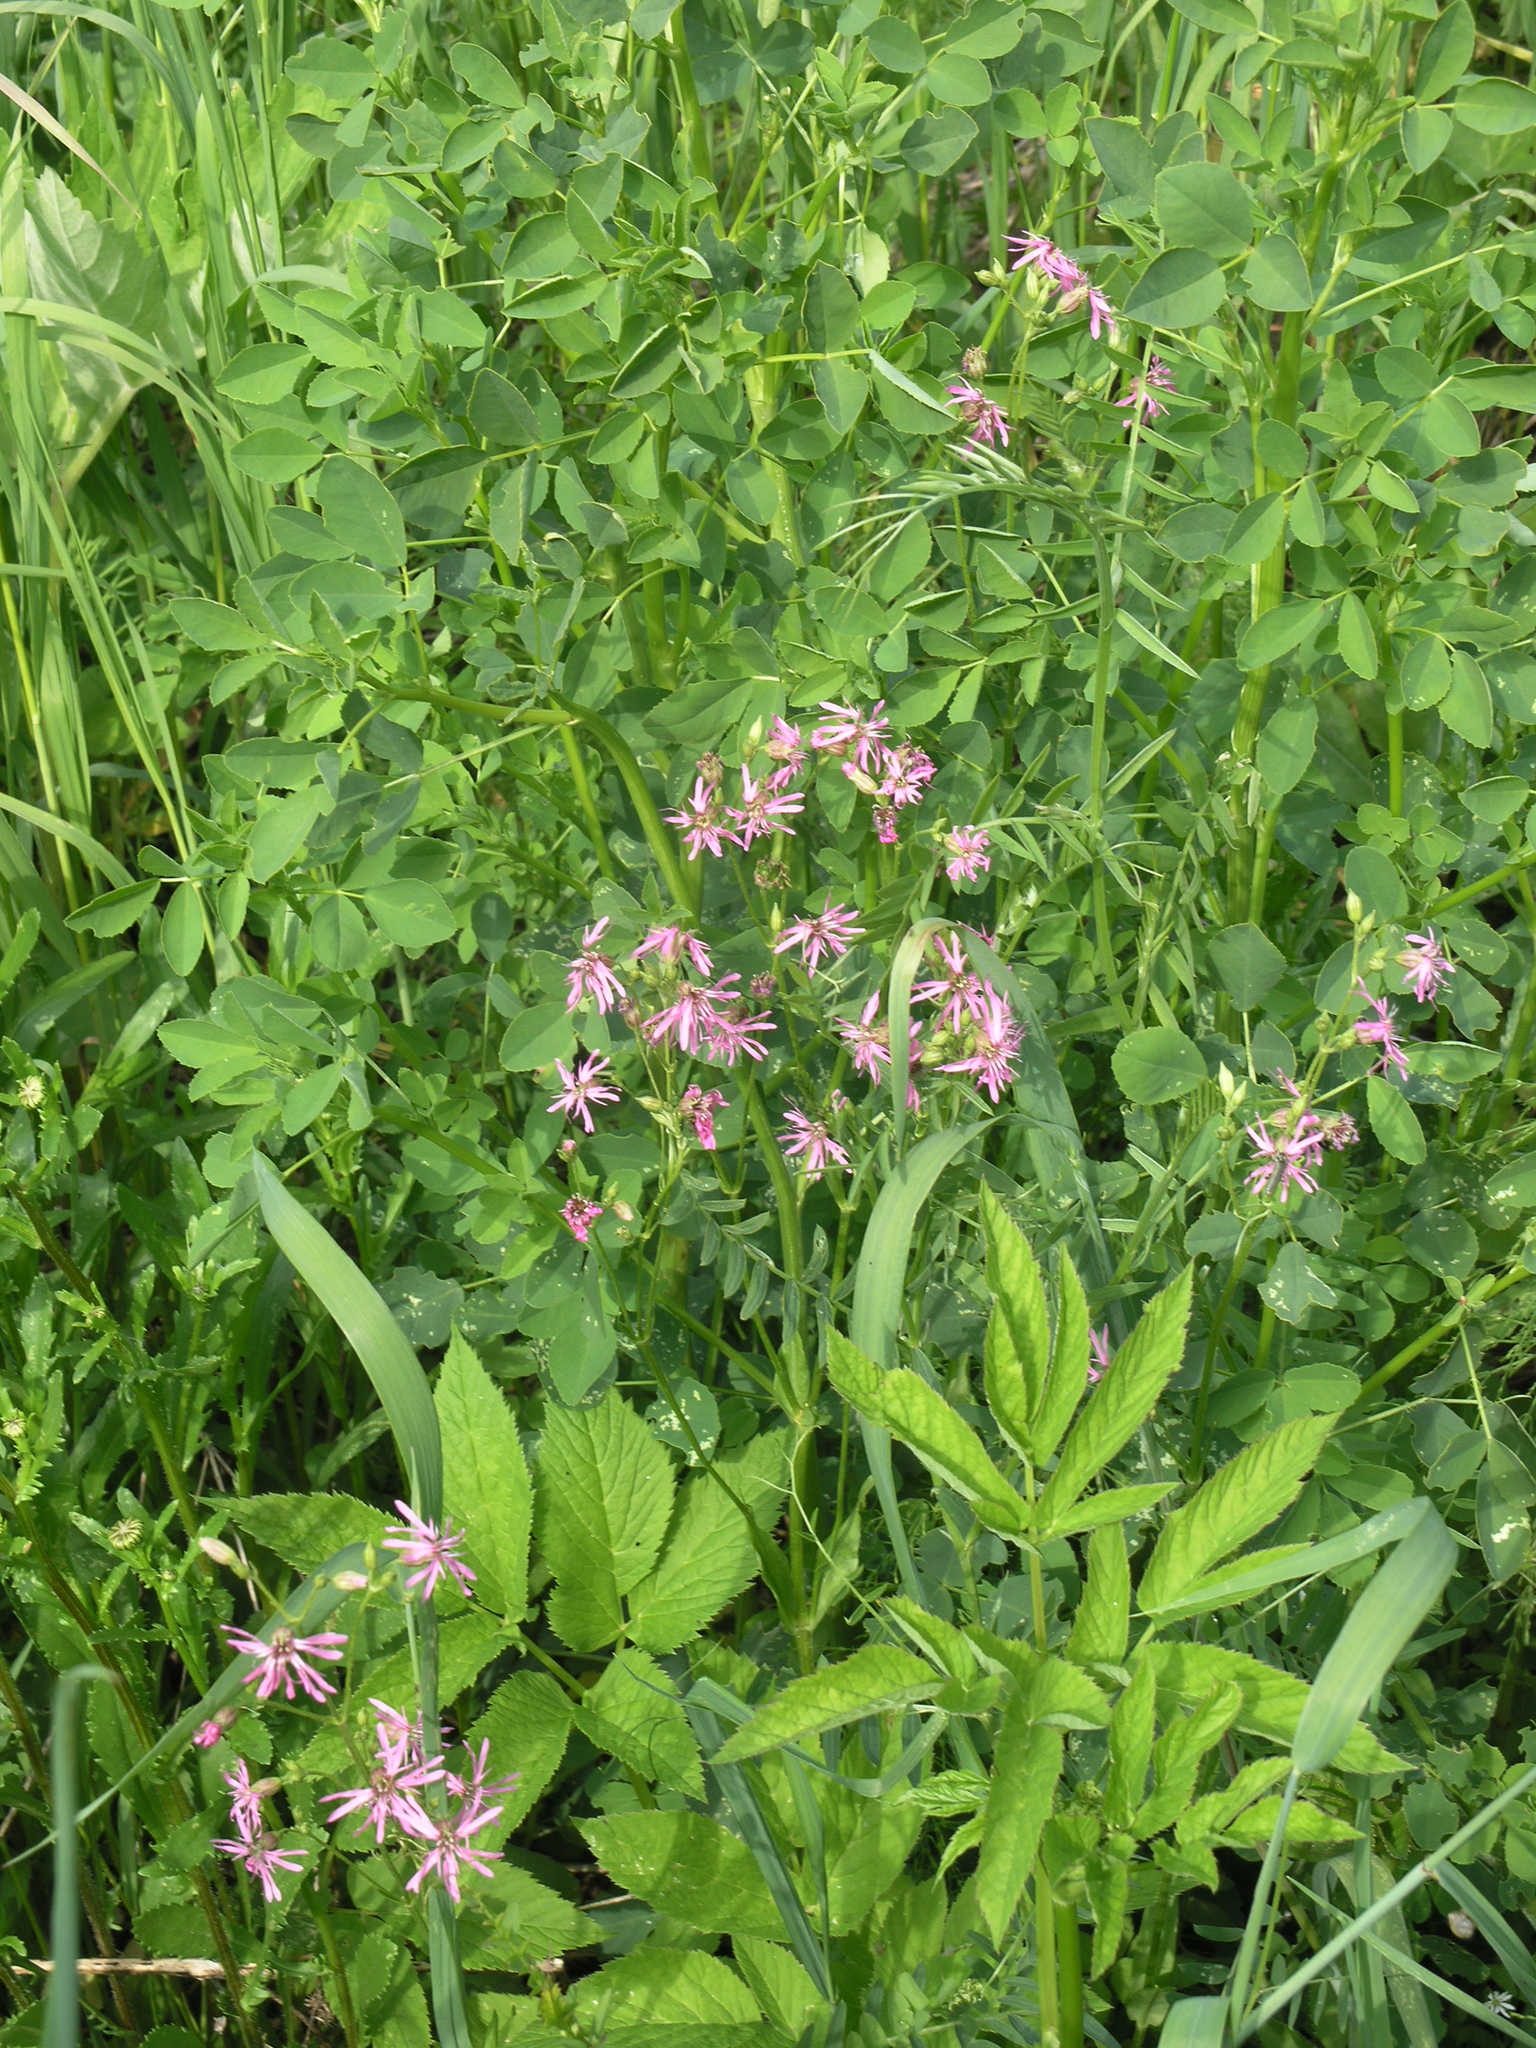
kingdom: Plantae
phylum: Tracheophyta
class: Magnoliopsida
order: Caryophyllales
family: Caryophyllaceae
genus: Silene
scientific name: Silene flos-cuculi
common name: Ragged-robin
